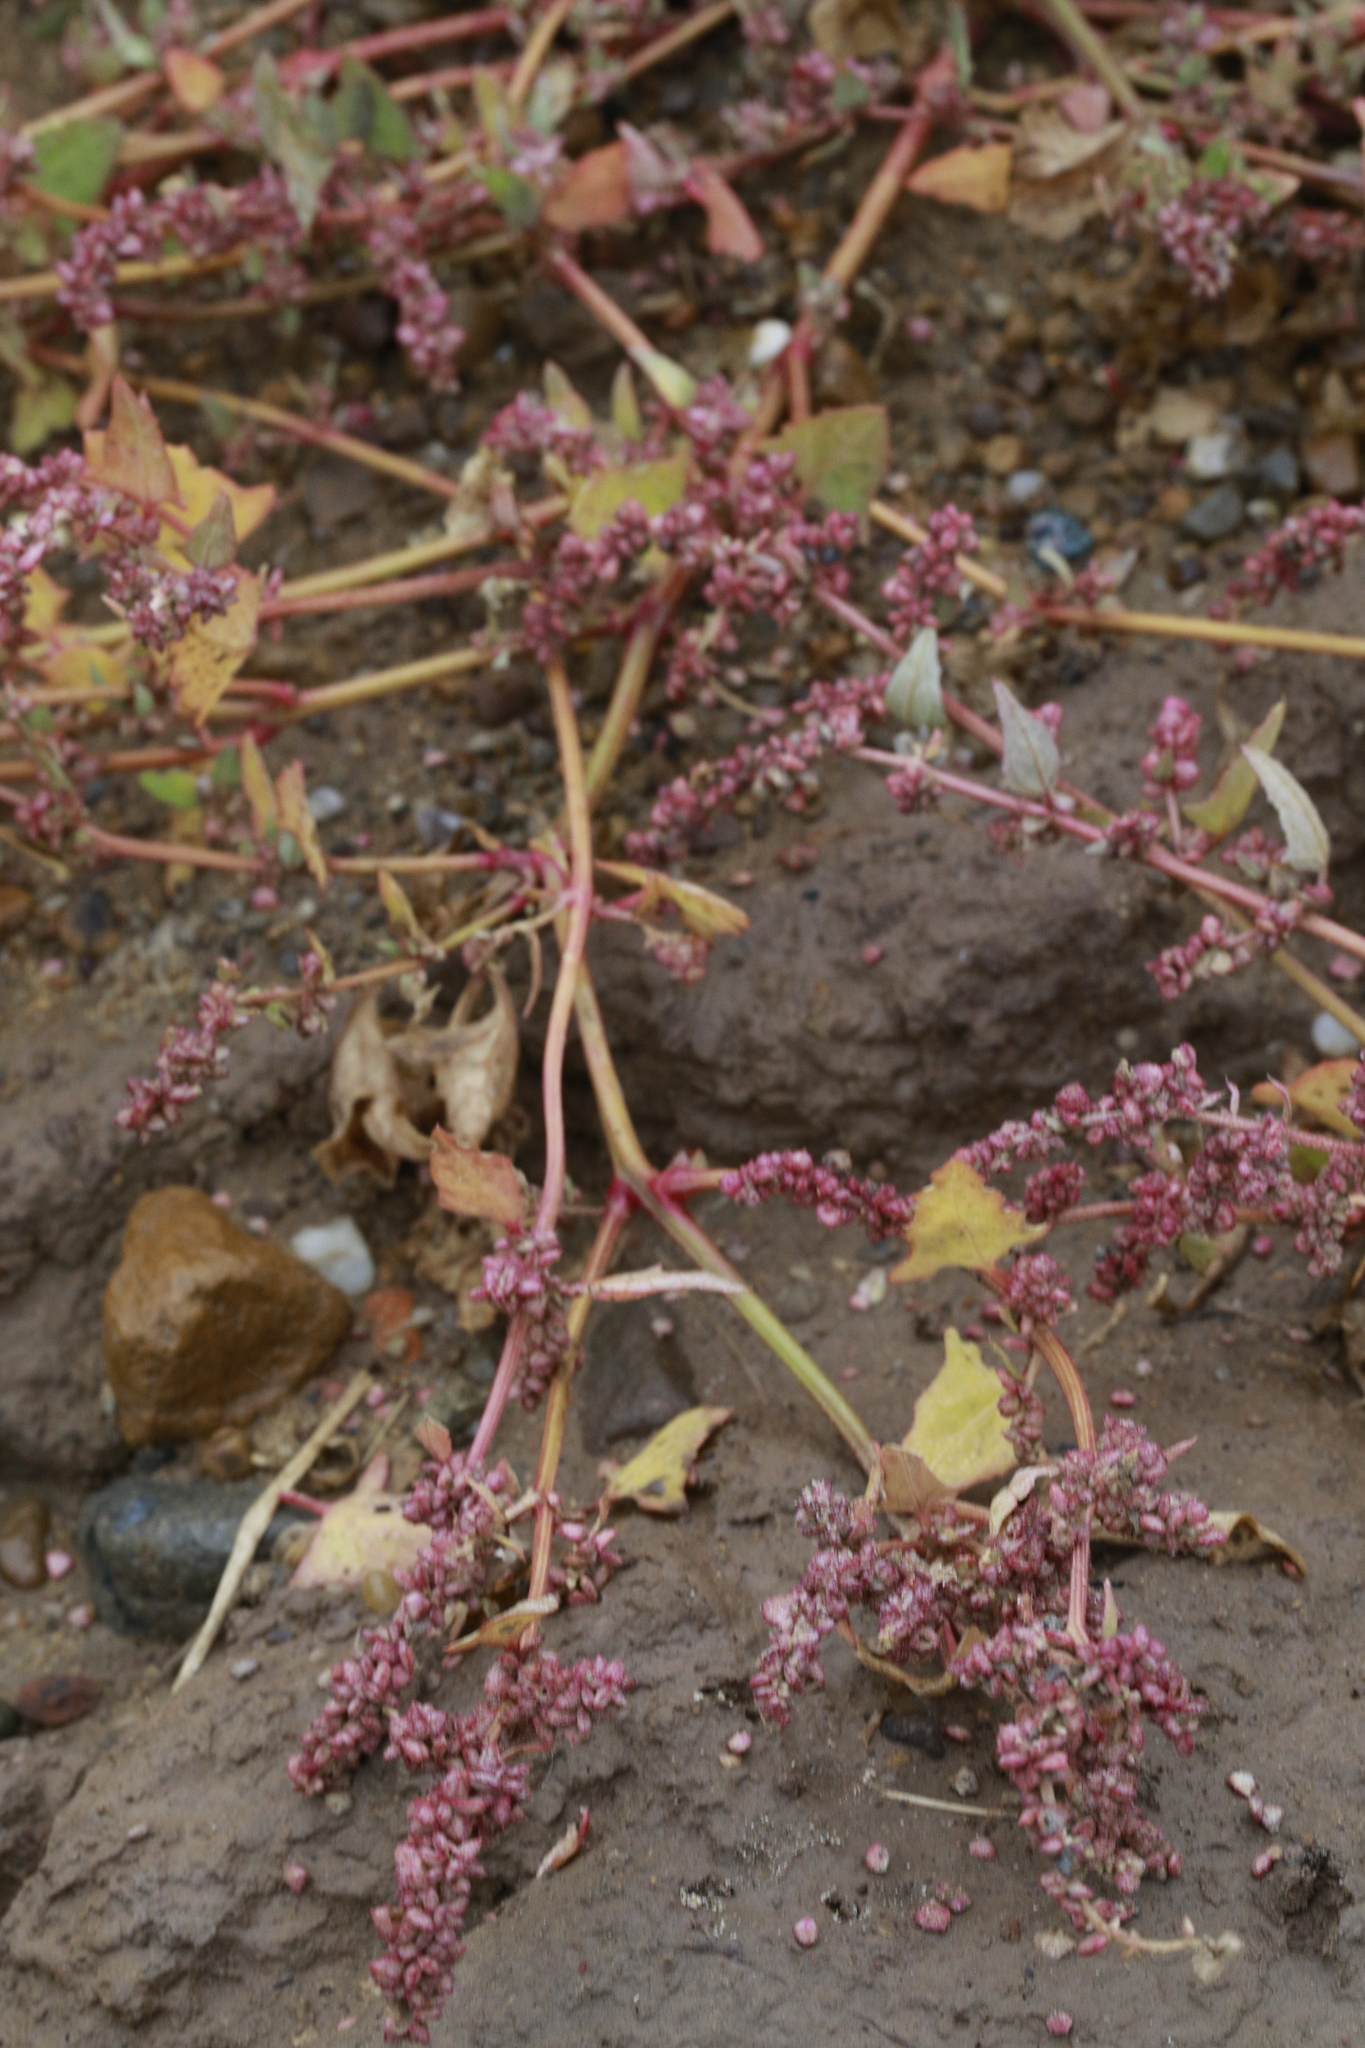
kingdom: Plantae
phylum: Tracheophyta
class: Magnoliopsida
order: Caryophyllales
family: Amaranthaceae
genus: Atriplex
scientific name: Atriplex prostrata
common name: Spear-leaved orache
